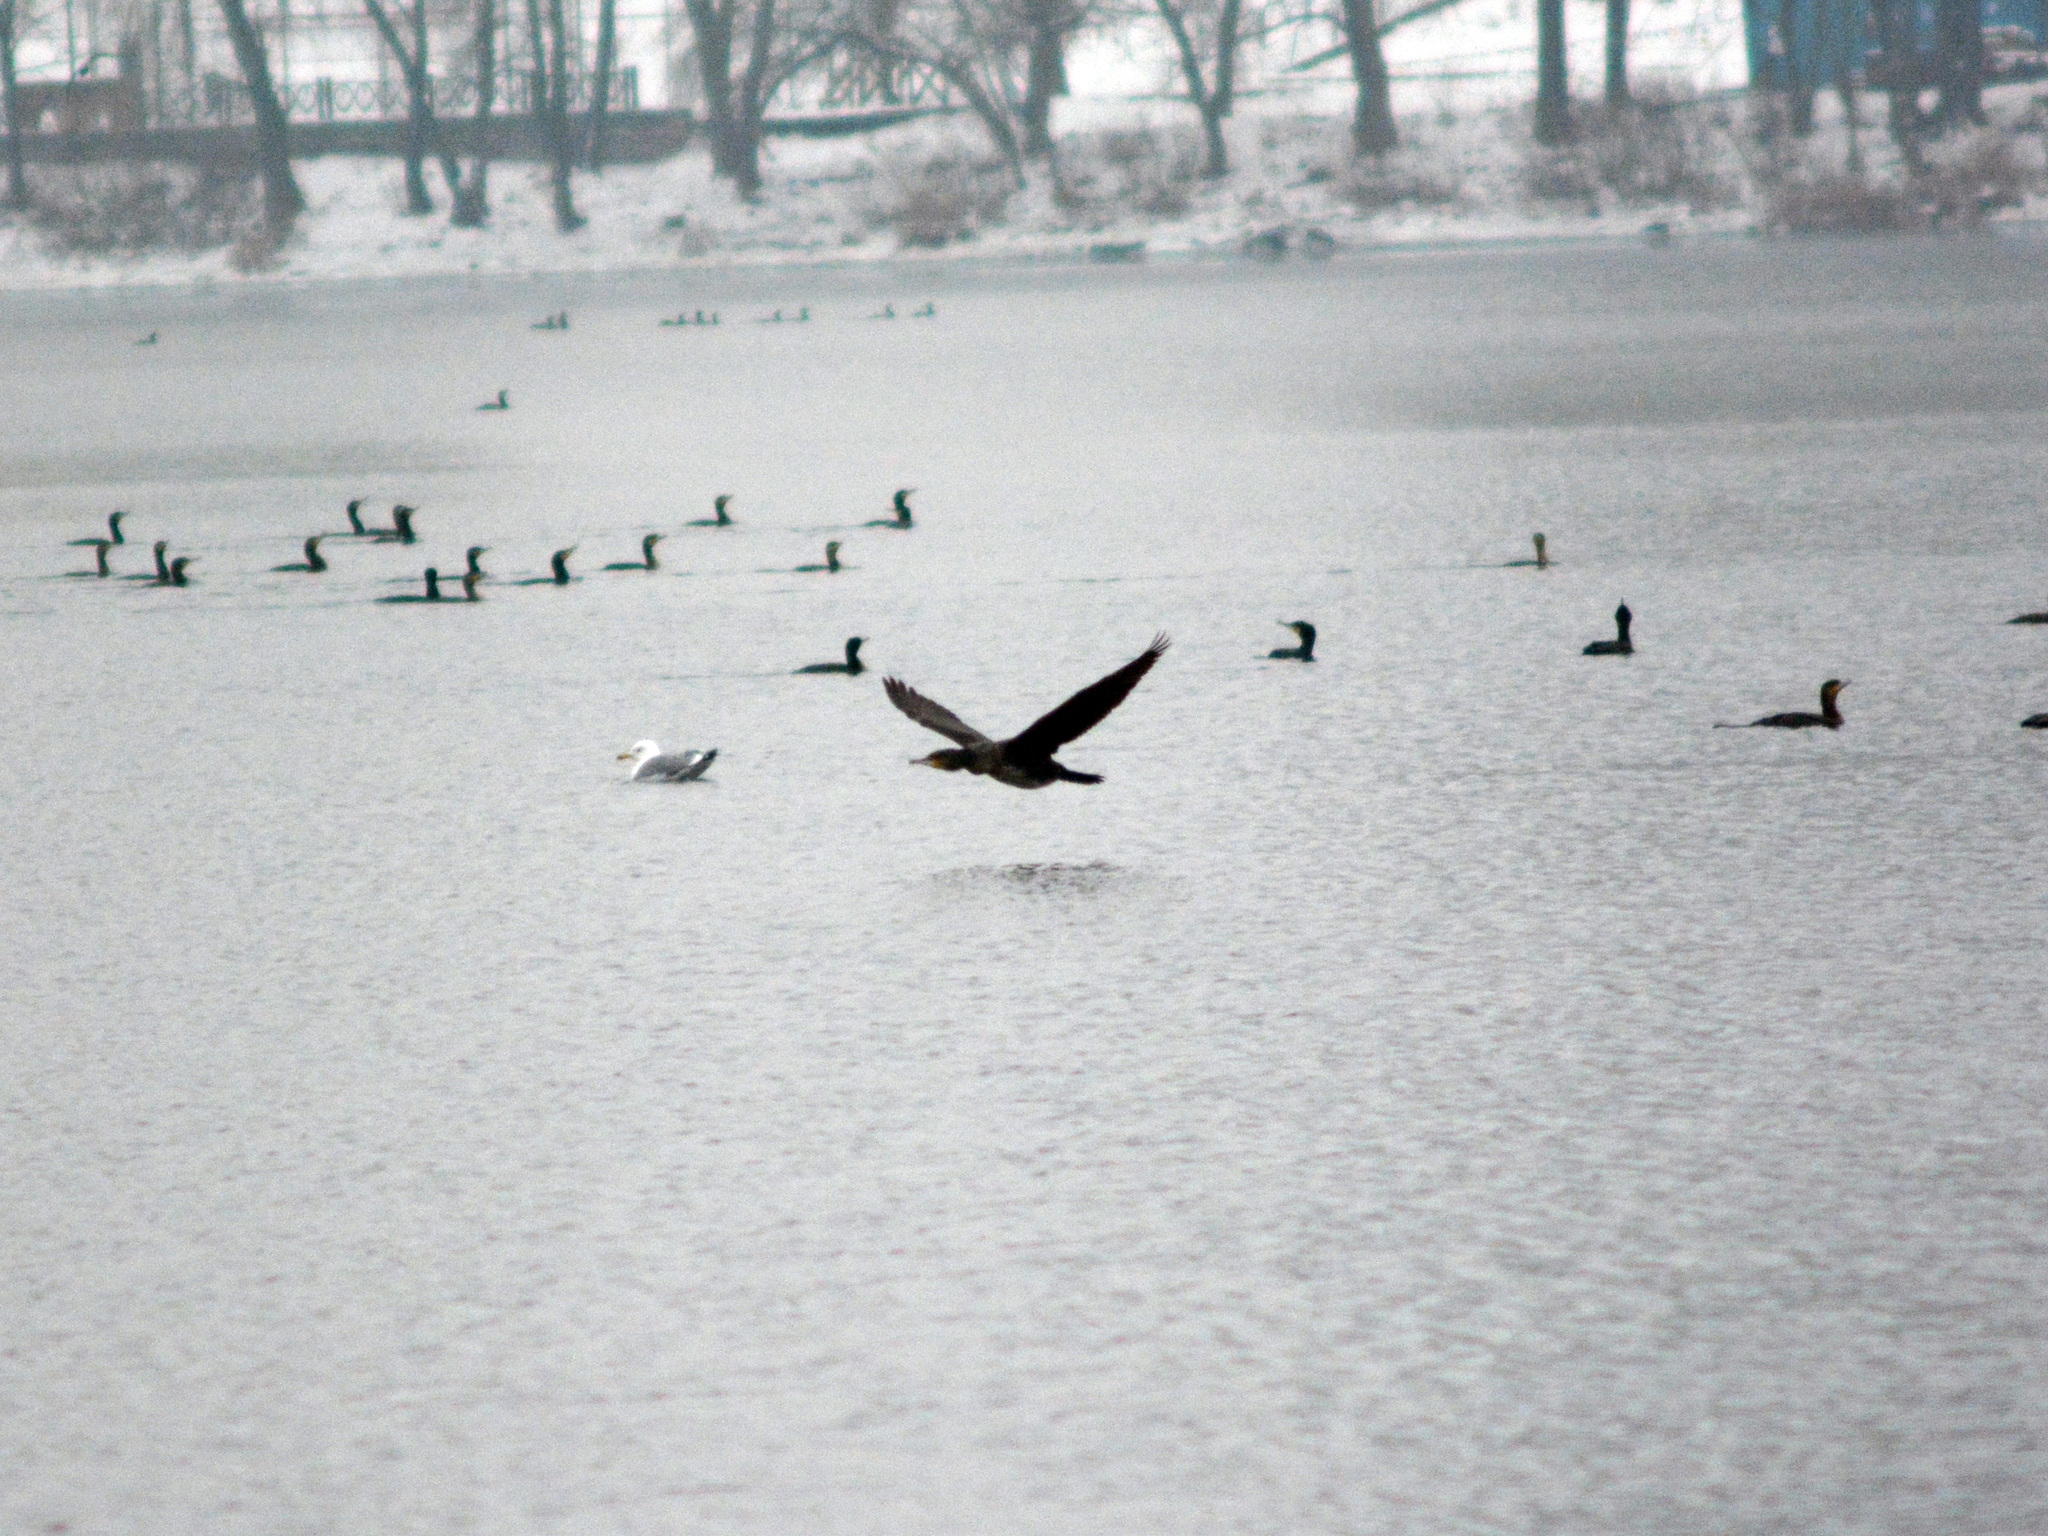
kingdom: Animalia
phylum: Chordata
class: Aves
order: Suliformes
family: Phalacrocoracidae
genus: Phalacrocorax
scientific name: Phalacrocorax carbo
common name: Great cormorant
